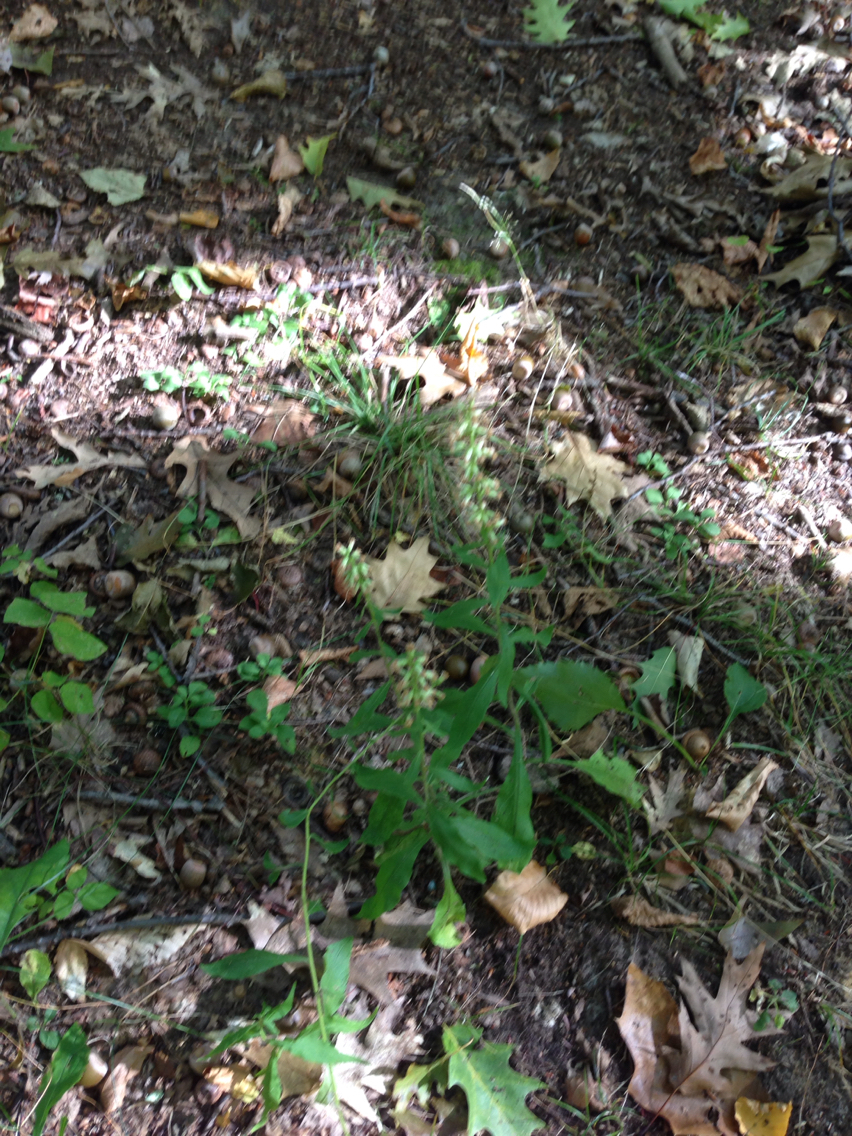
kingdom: Plantae
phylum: Tracheophyta
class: Magnoliopsida
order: Asterales
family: Asteraceae
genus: Solidago
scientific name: Solidago bicolor
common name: Silverrod
